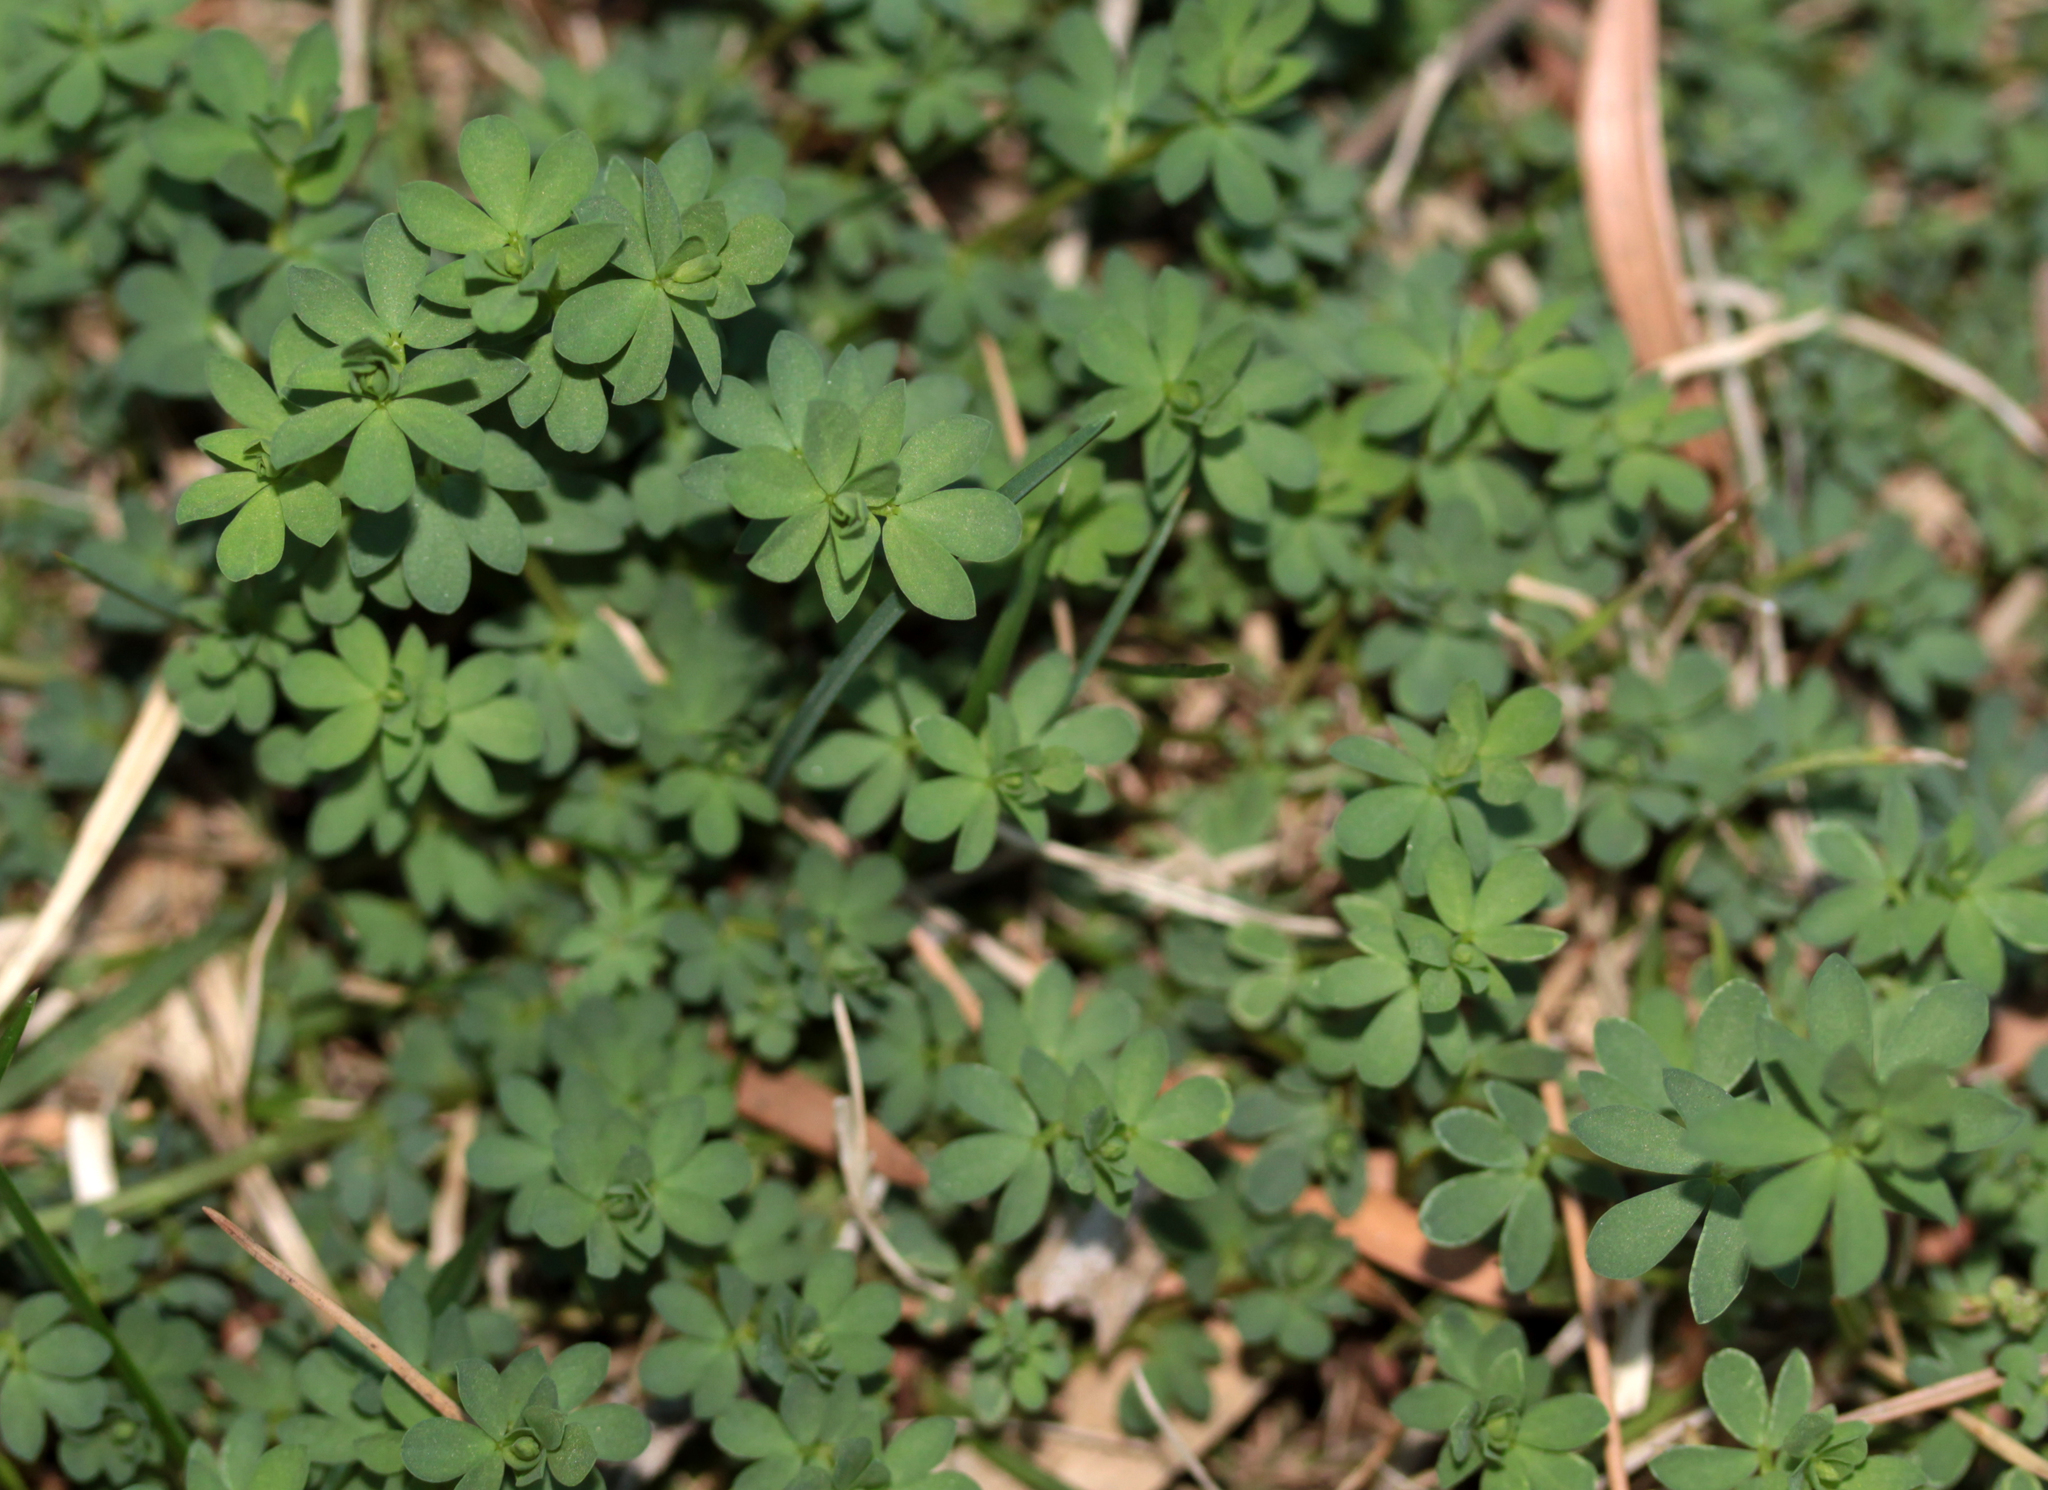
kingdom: Plantae
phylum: Tracheophyta
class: Magnoliopsida
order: Fabales
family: Fabaceae
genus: Lotus
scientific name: Lotus corniculatus
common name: Common bird's-foot-trefoil
